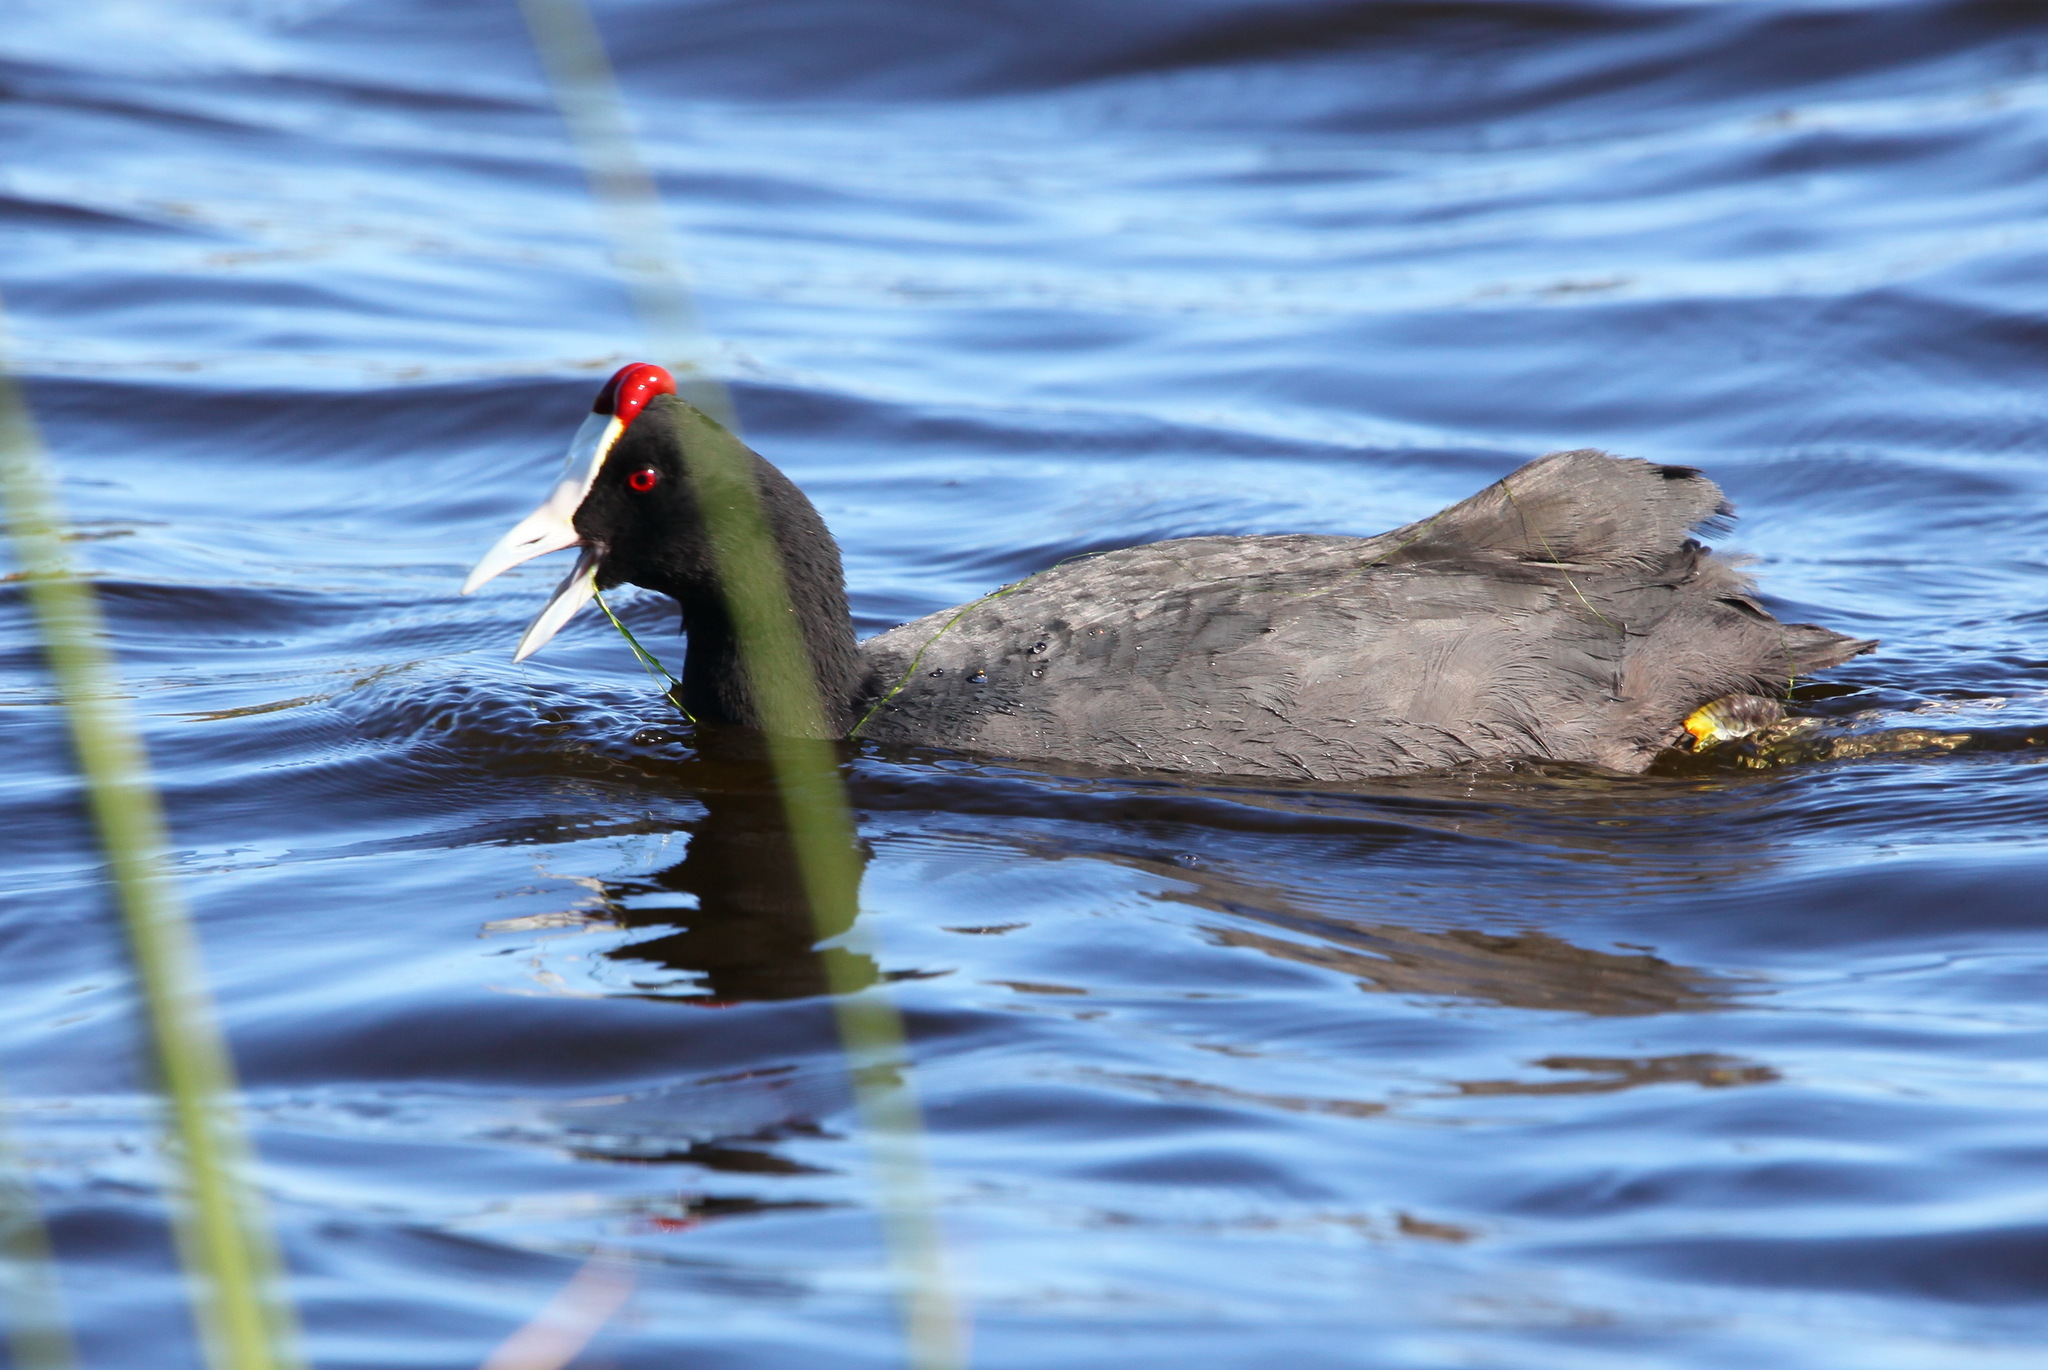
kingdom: Animalia
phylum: Chordata
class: Aves
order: Gruiformes
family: Rallidae
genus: Fulica
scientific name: Fulica cristata
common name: Red-knobbed coot
